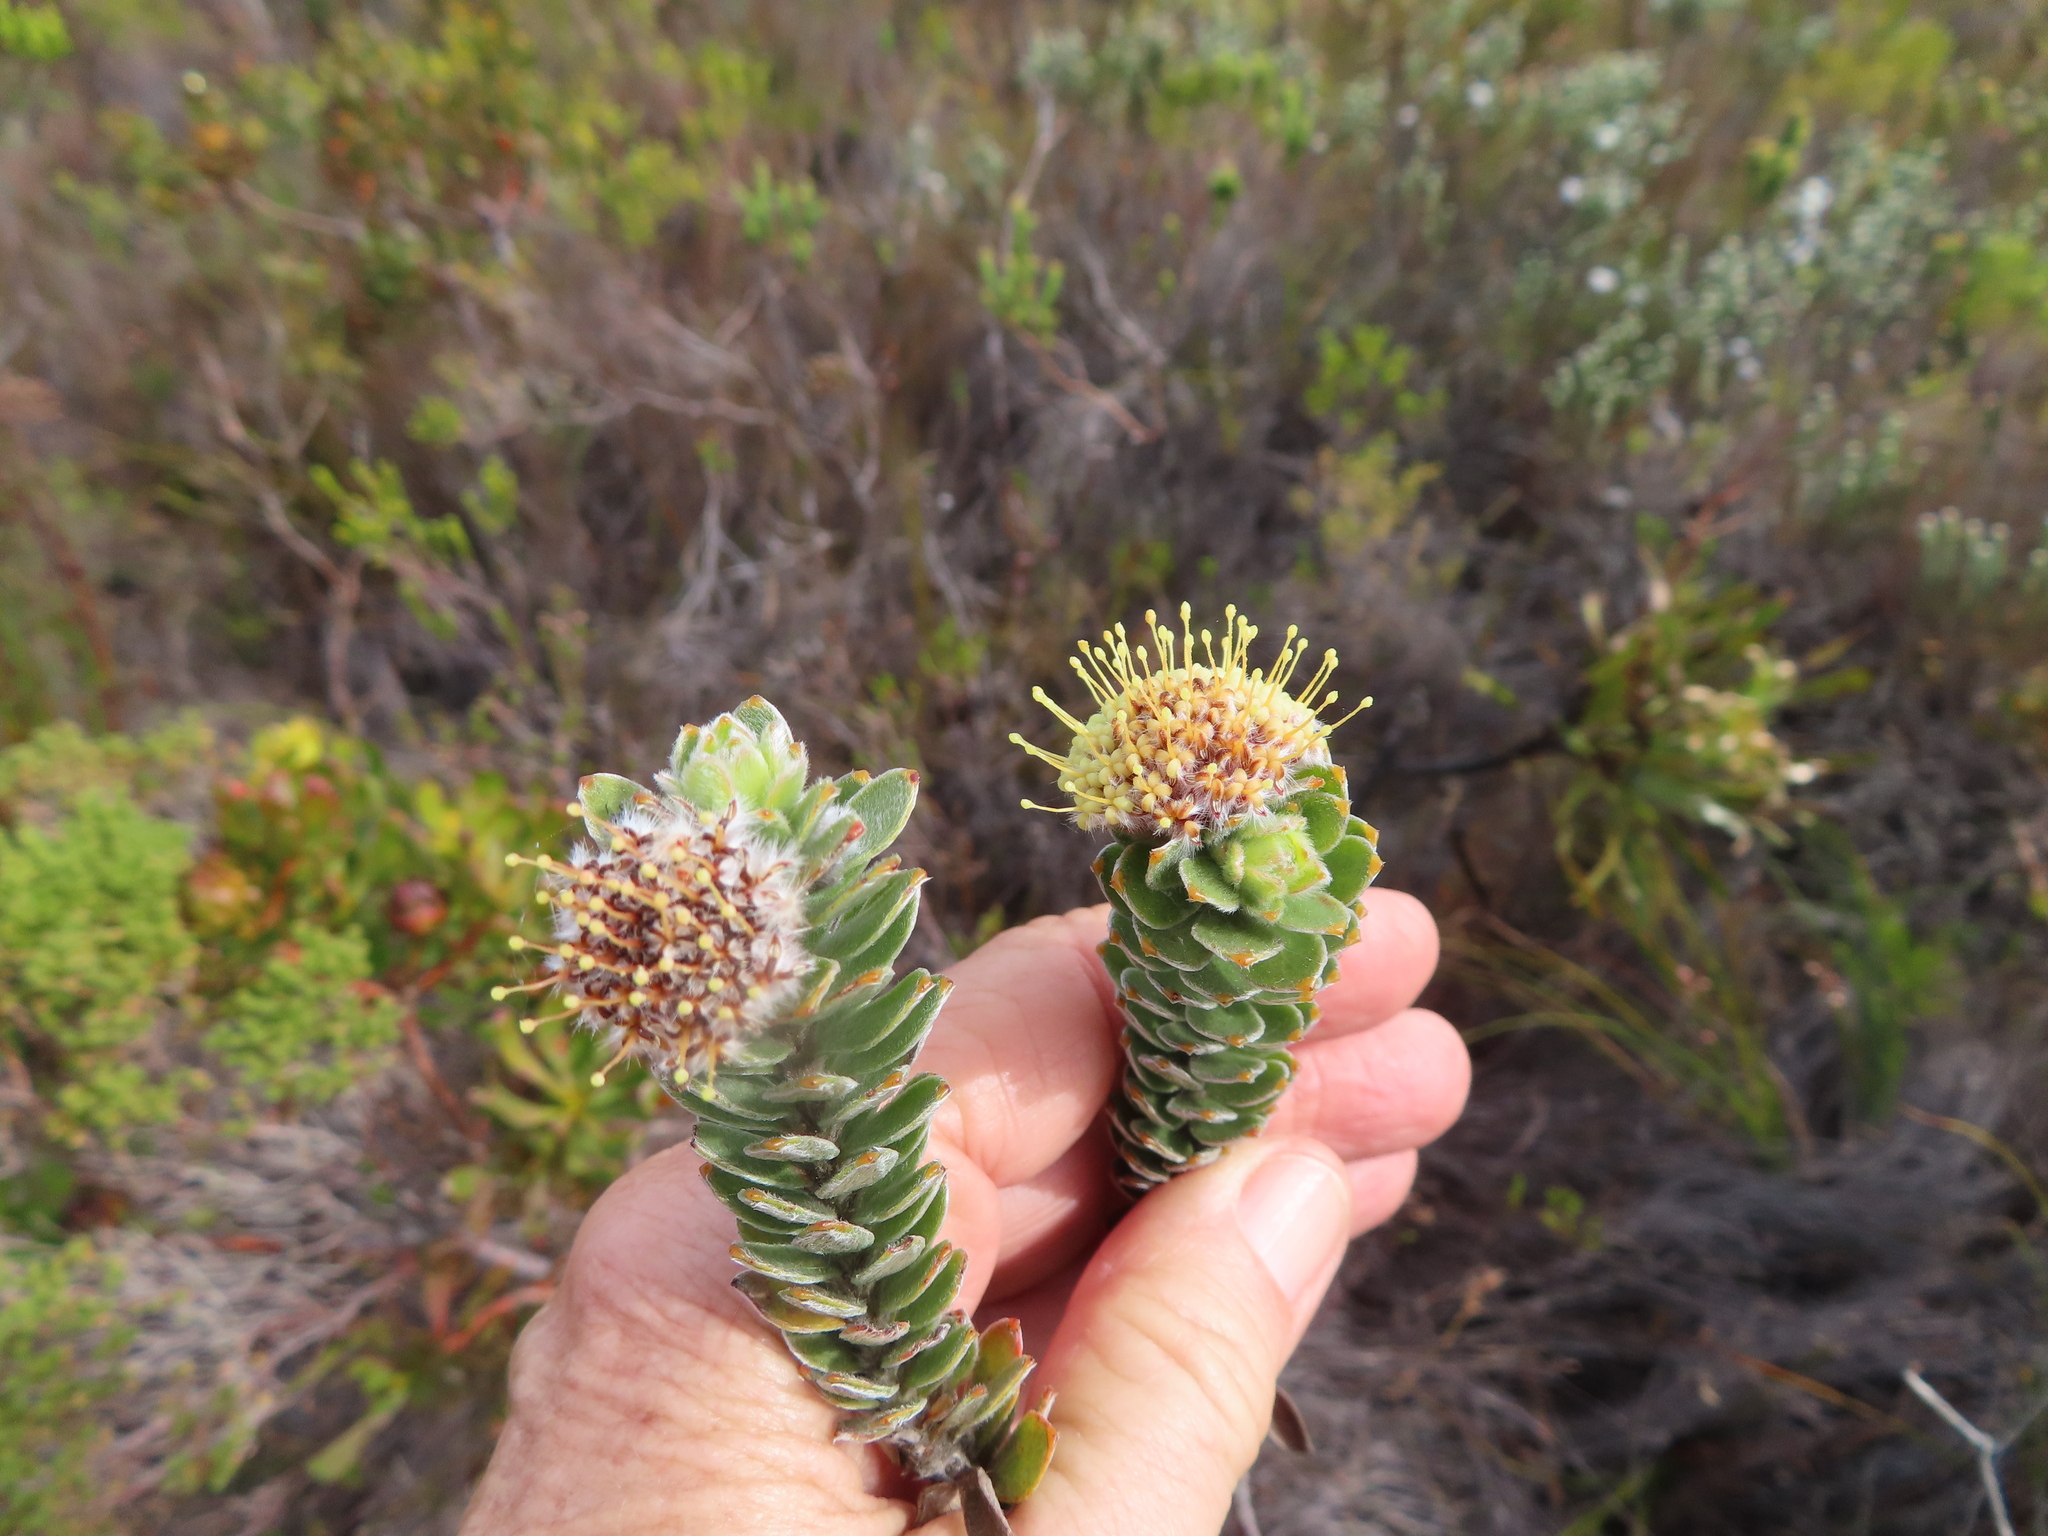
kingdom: Plantae
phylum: Tracheophyta
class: Magnoliopsida
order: Proteales
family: Proteaceae
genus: Leucospermum
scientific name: Leucospermum truncatulum
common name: Oval-leaf pincushion
